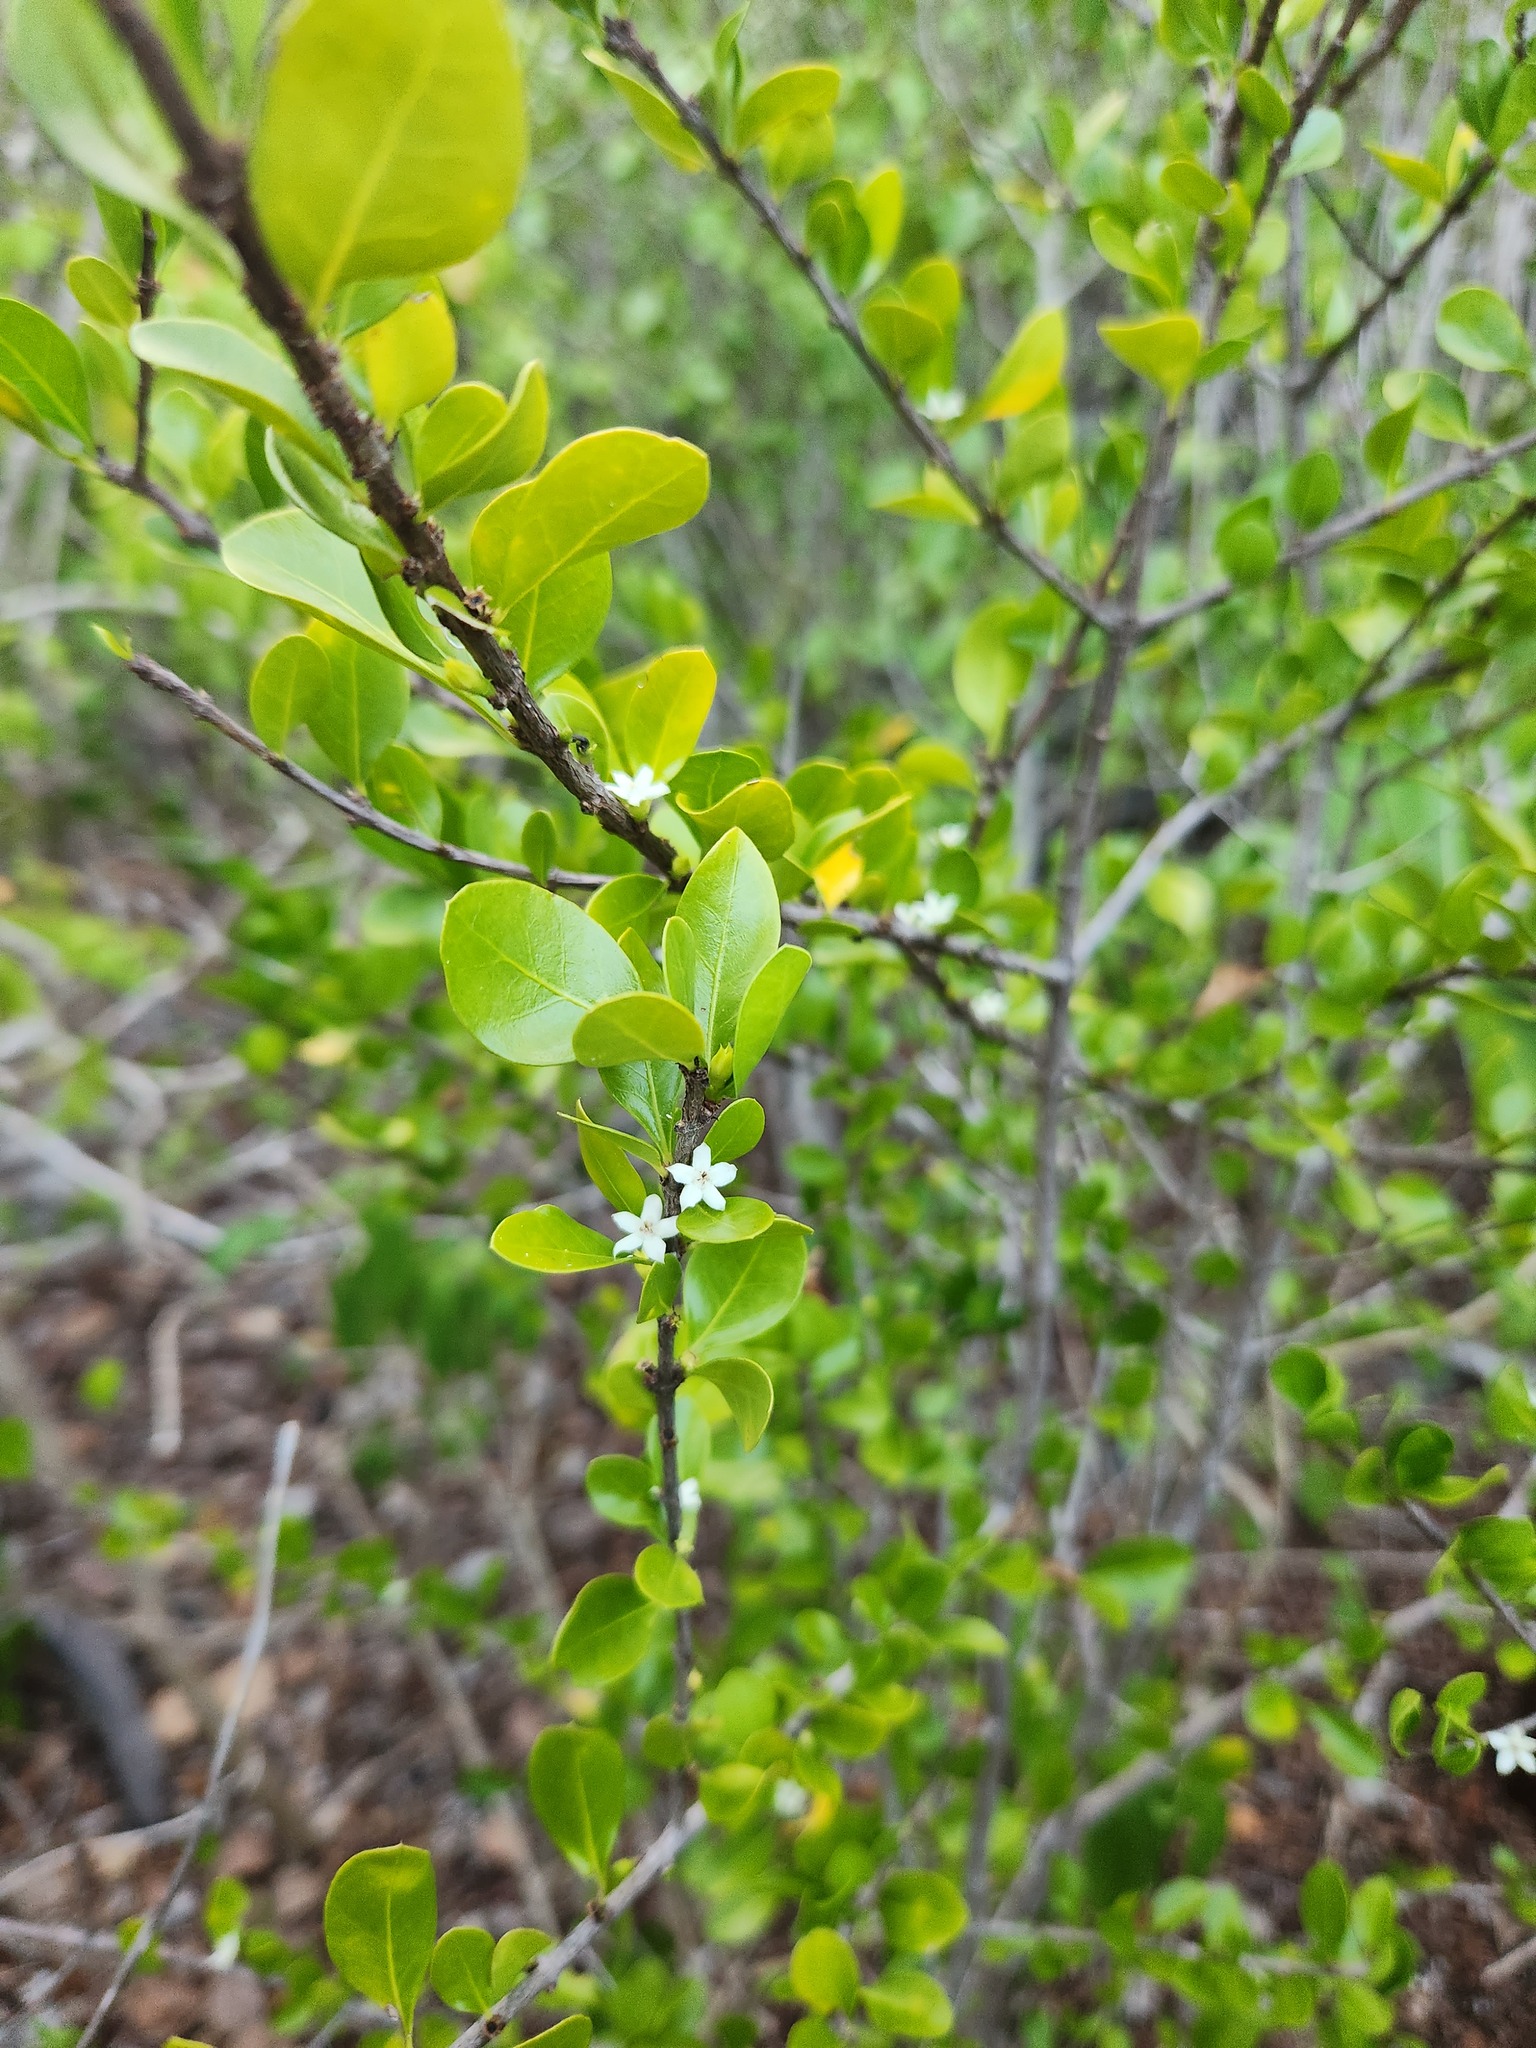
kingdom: Plantae
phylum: Tracheophyta
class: Magnoliopsida
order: Gentianales
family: Rubiaceae
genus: Randia
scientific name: Randia aculeata
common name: Inkberry
